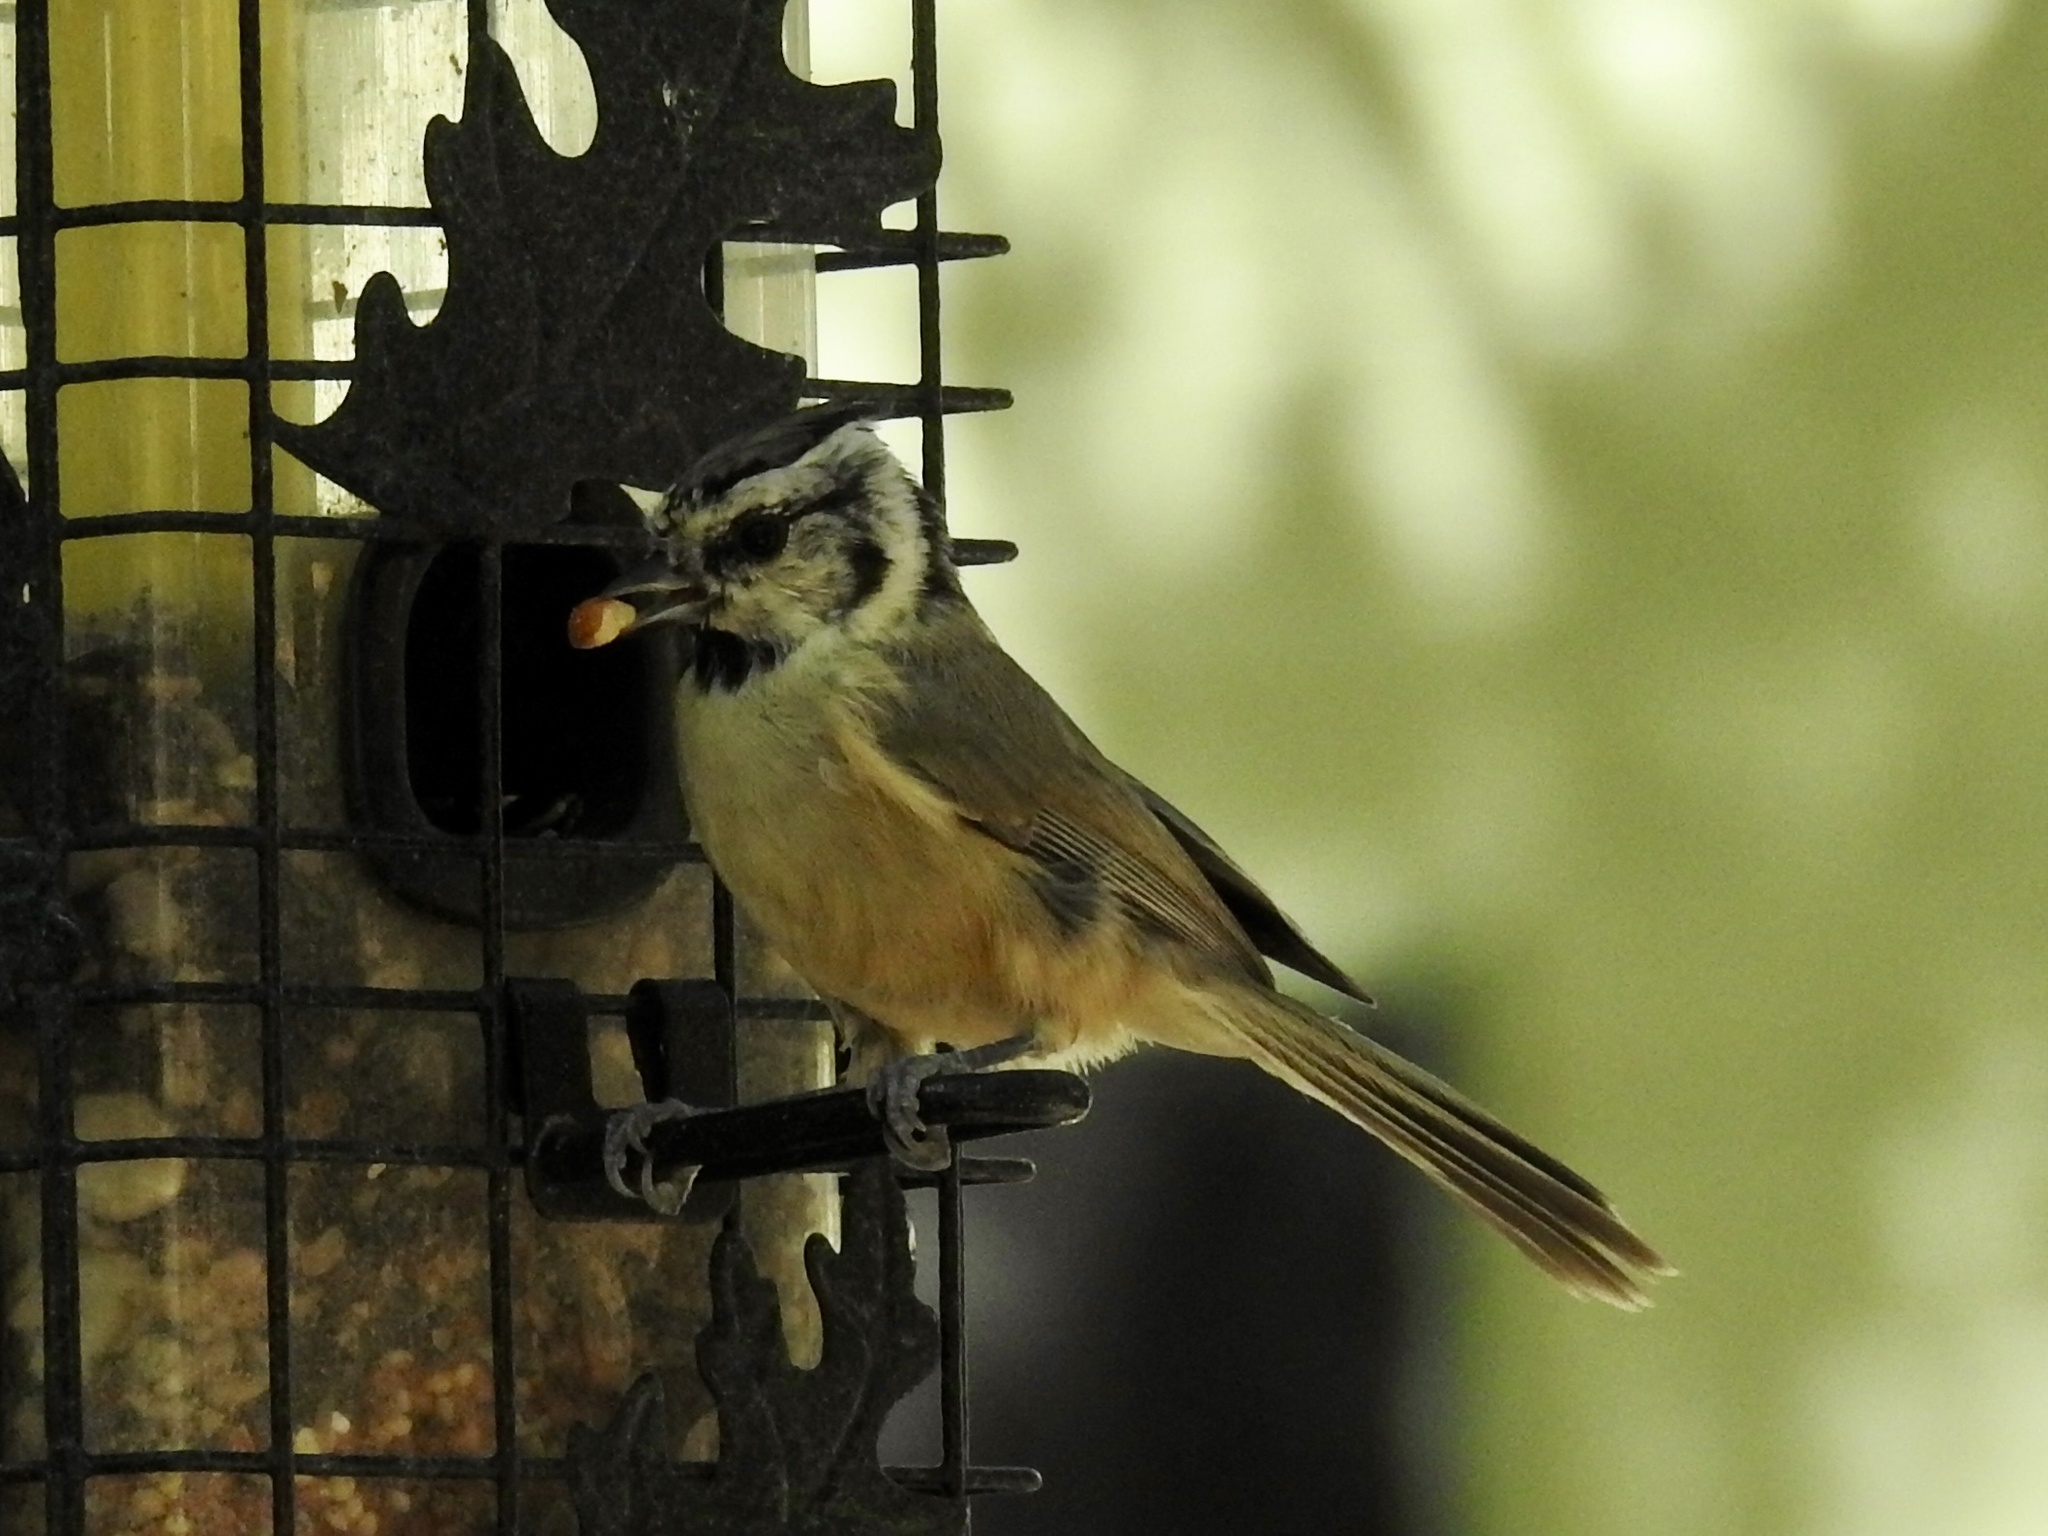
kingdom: Animalia
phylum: Chordata
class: Aves
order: Passeriformes
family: Paridae
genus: Baeolophus
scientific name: Baeolophus wollweberi
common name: Bridled titmouse
